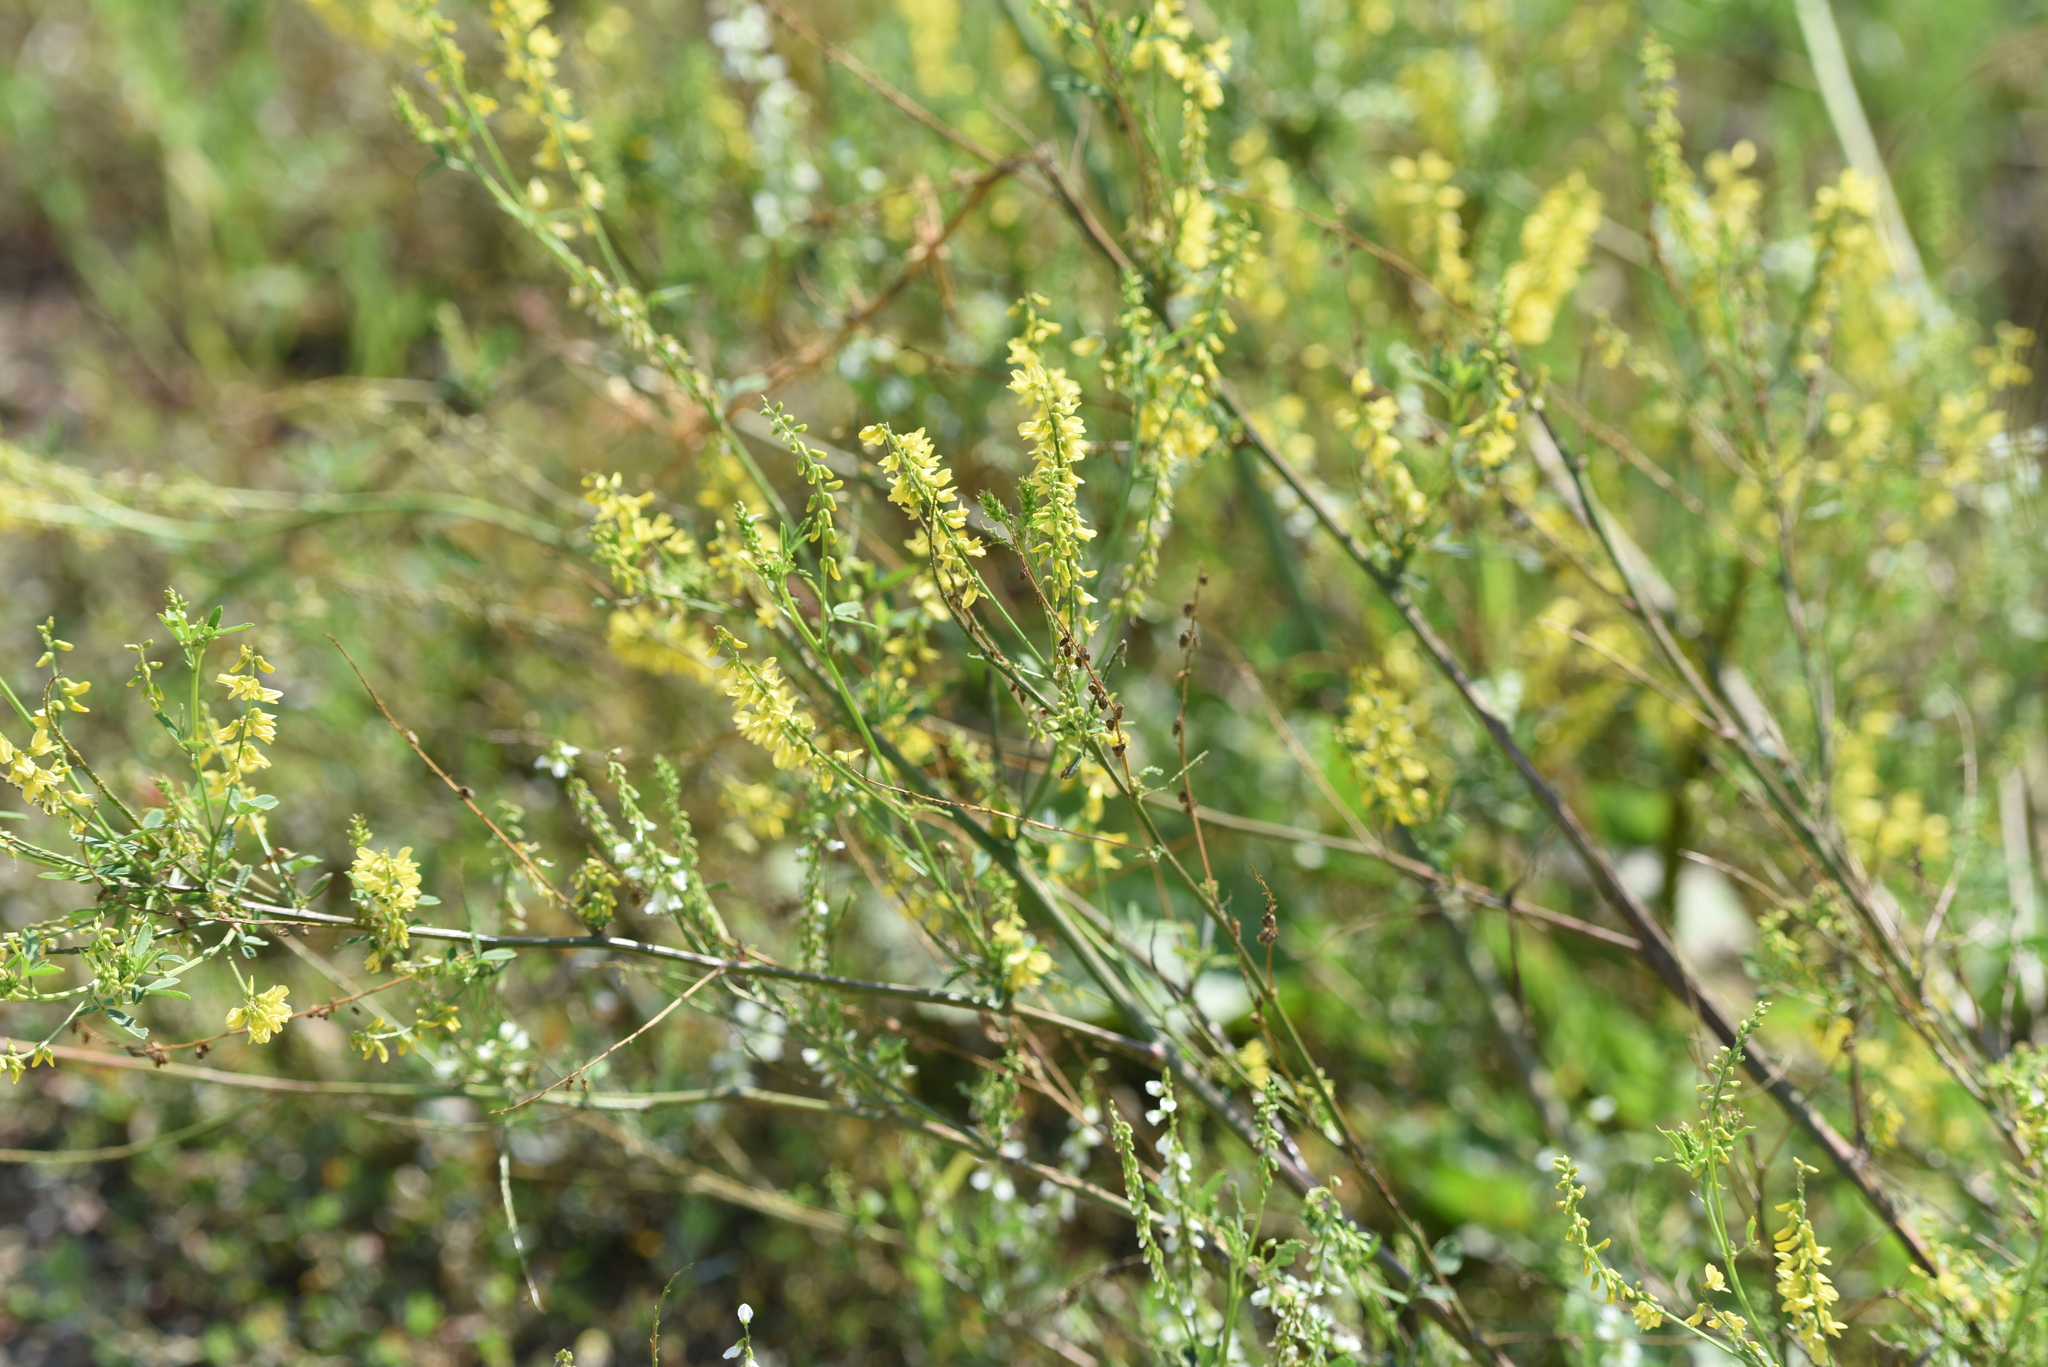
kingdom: Plantae
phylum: Tracheophyta
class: Magnoliopsida
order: Fabales
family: Fabaceae
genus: Melilotus
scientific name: Melilotus officinalis
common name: Sweetclover
